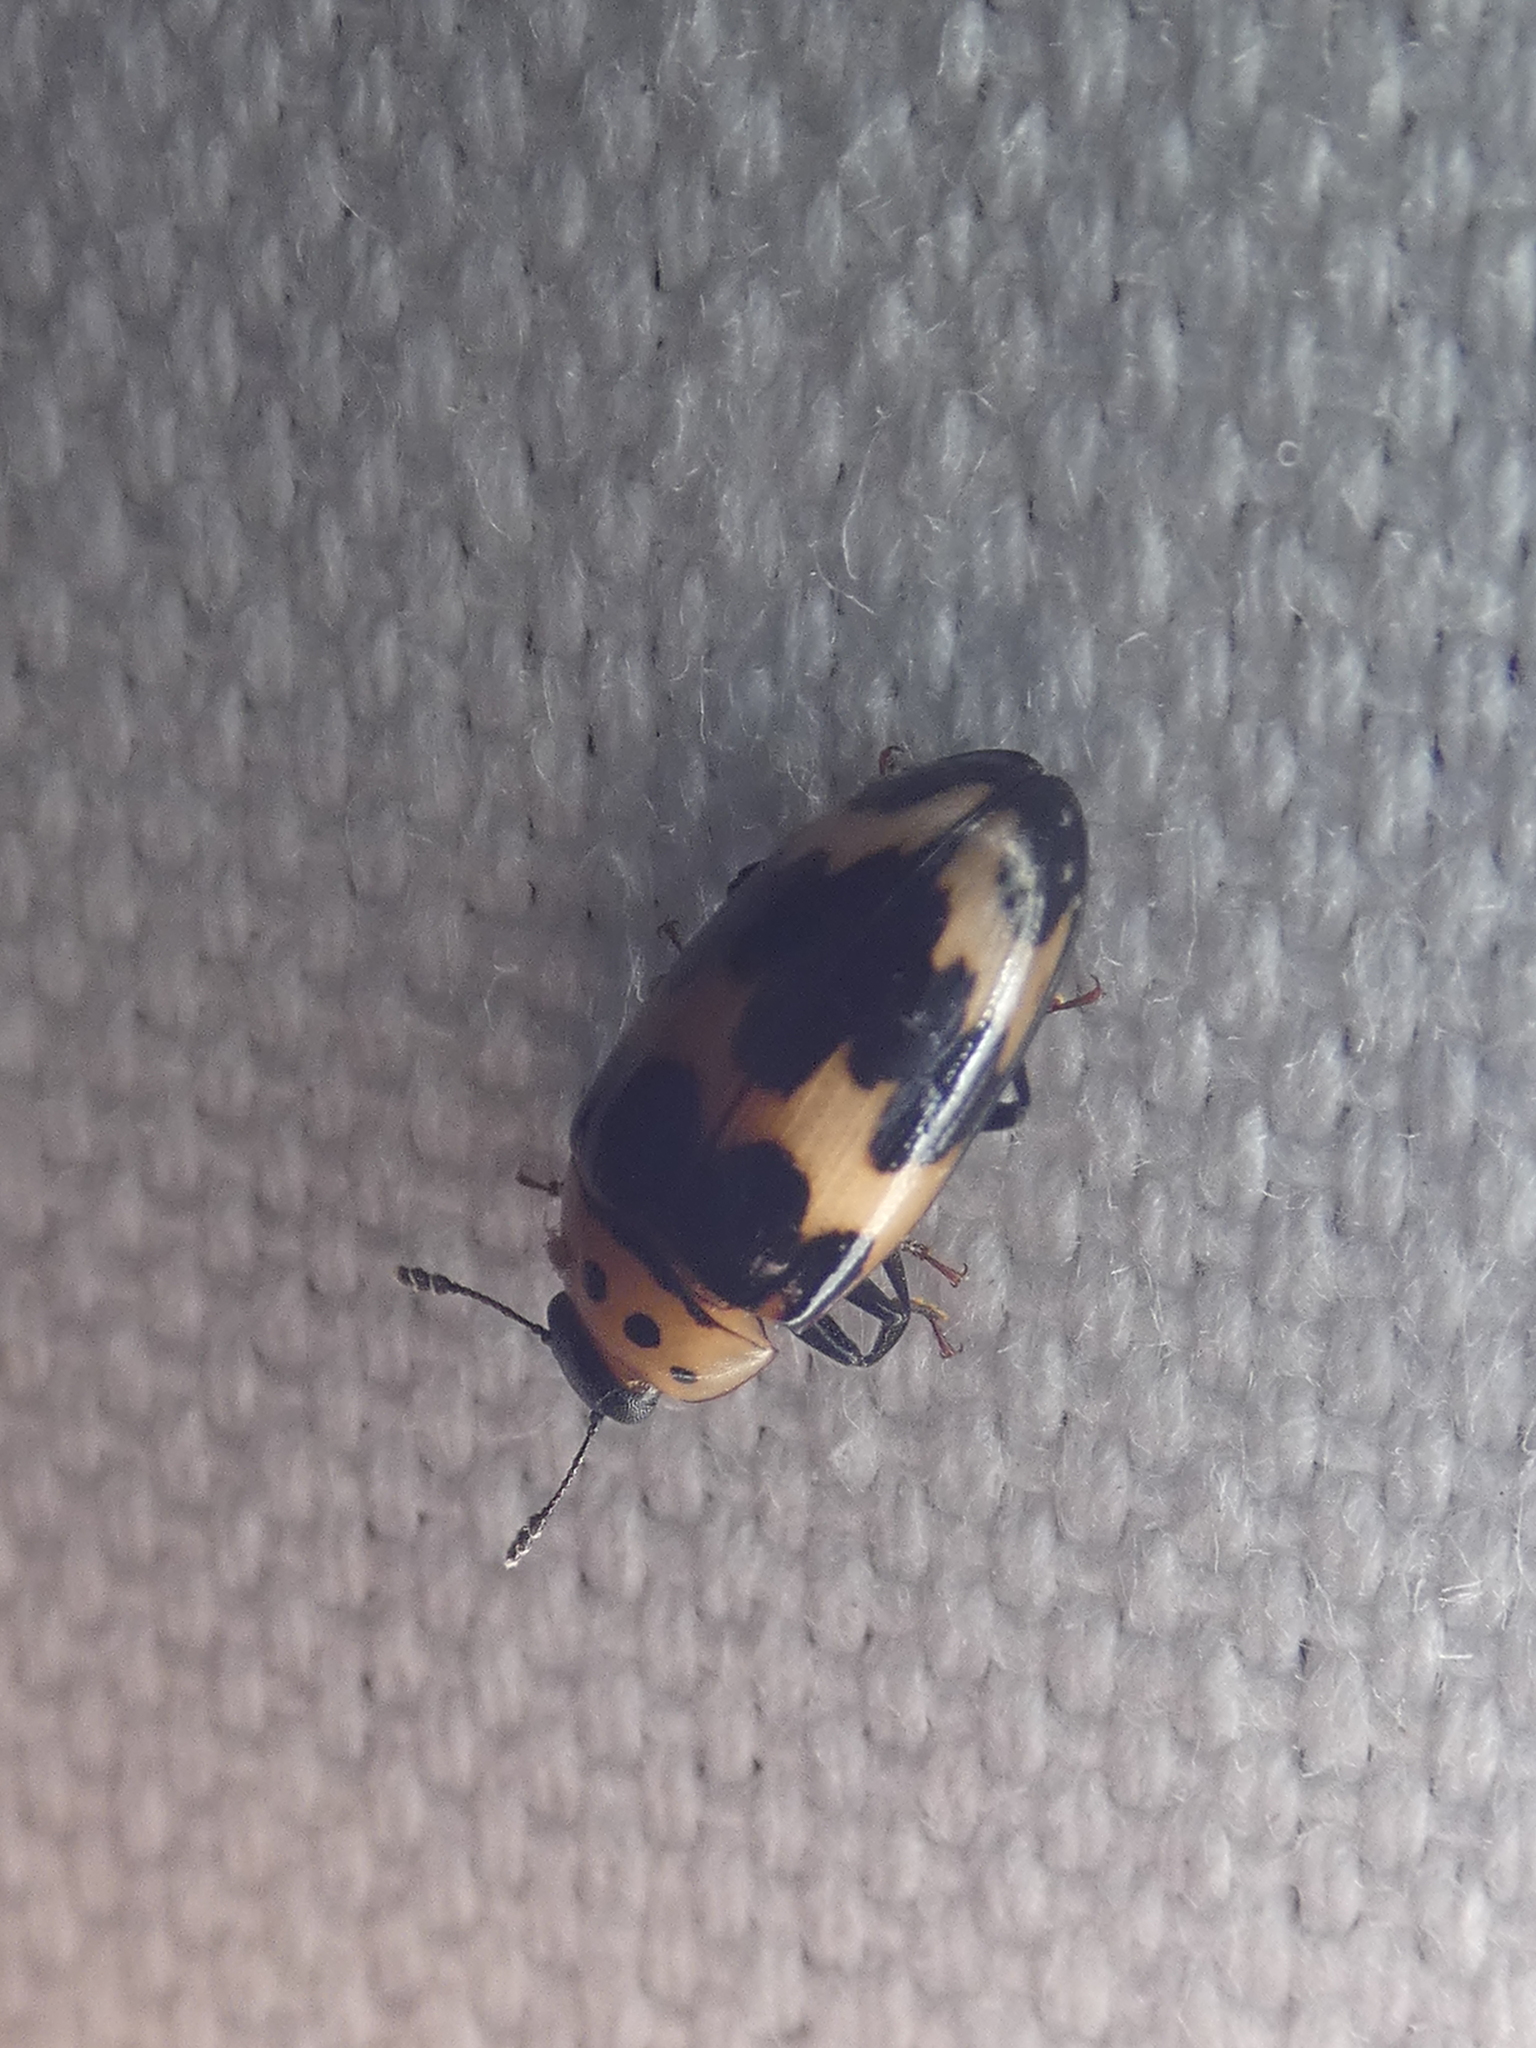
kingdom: Animalia
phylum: Arthropoda
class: Insecta
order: Coleoptera
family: Erotylidae
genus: Ischyrus
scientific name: Ischyrus quadripunctatus
